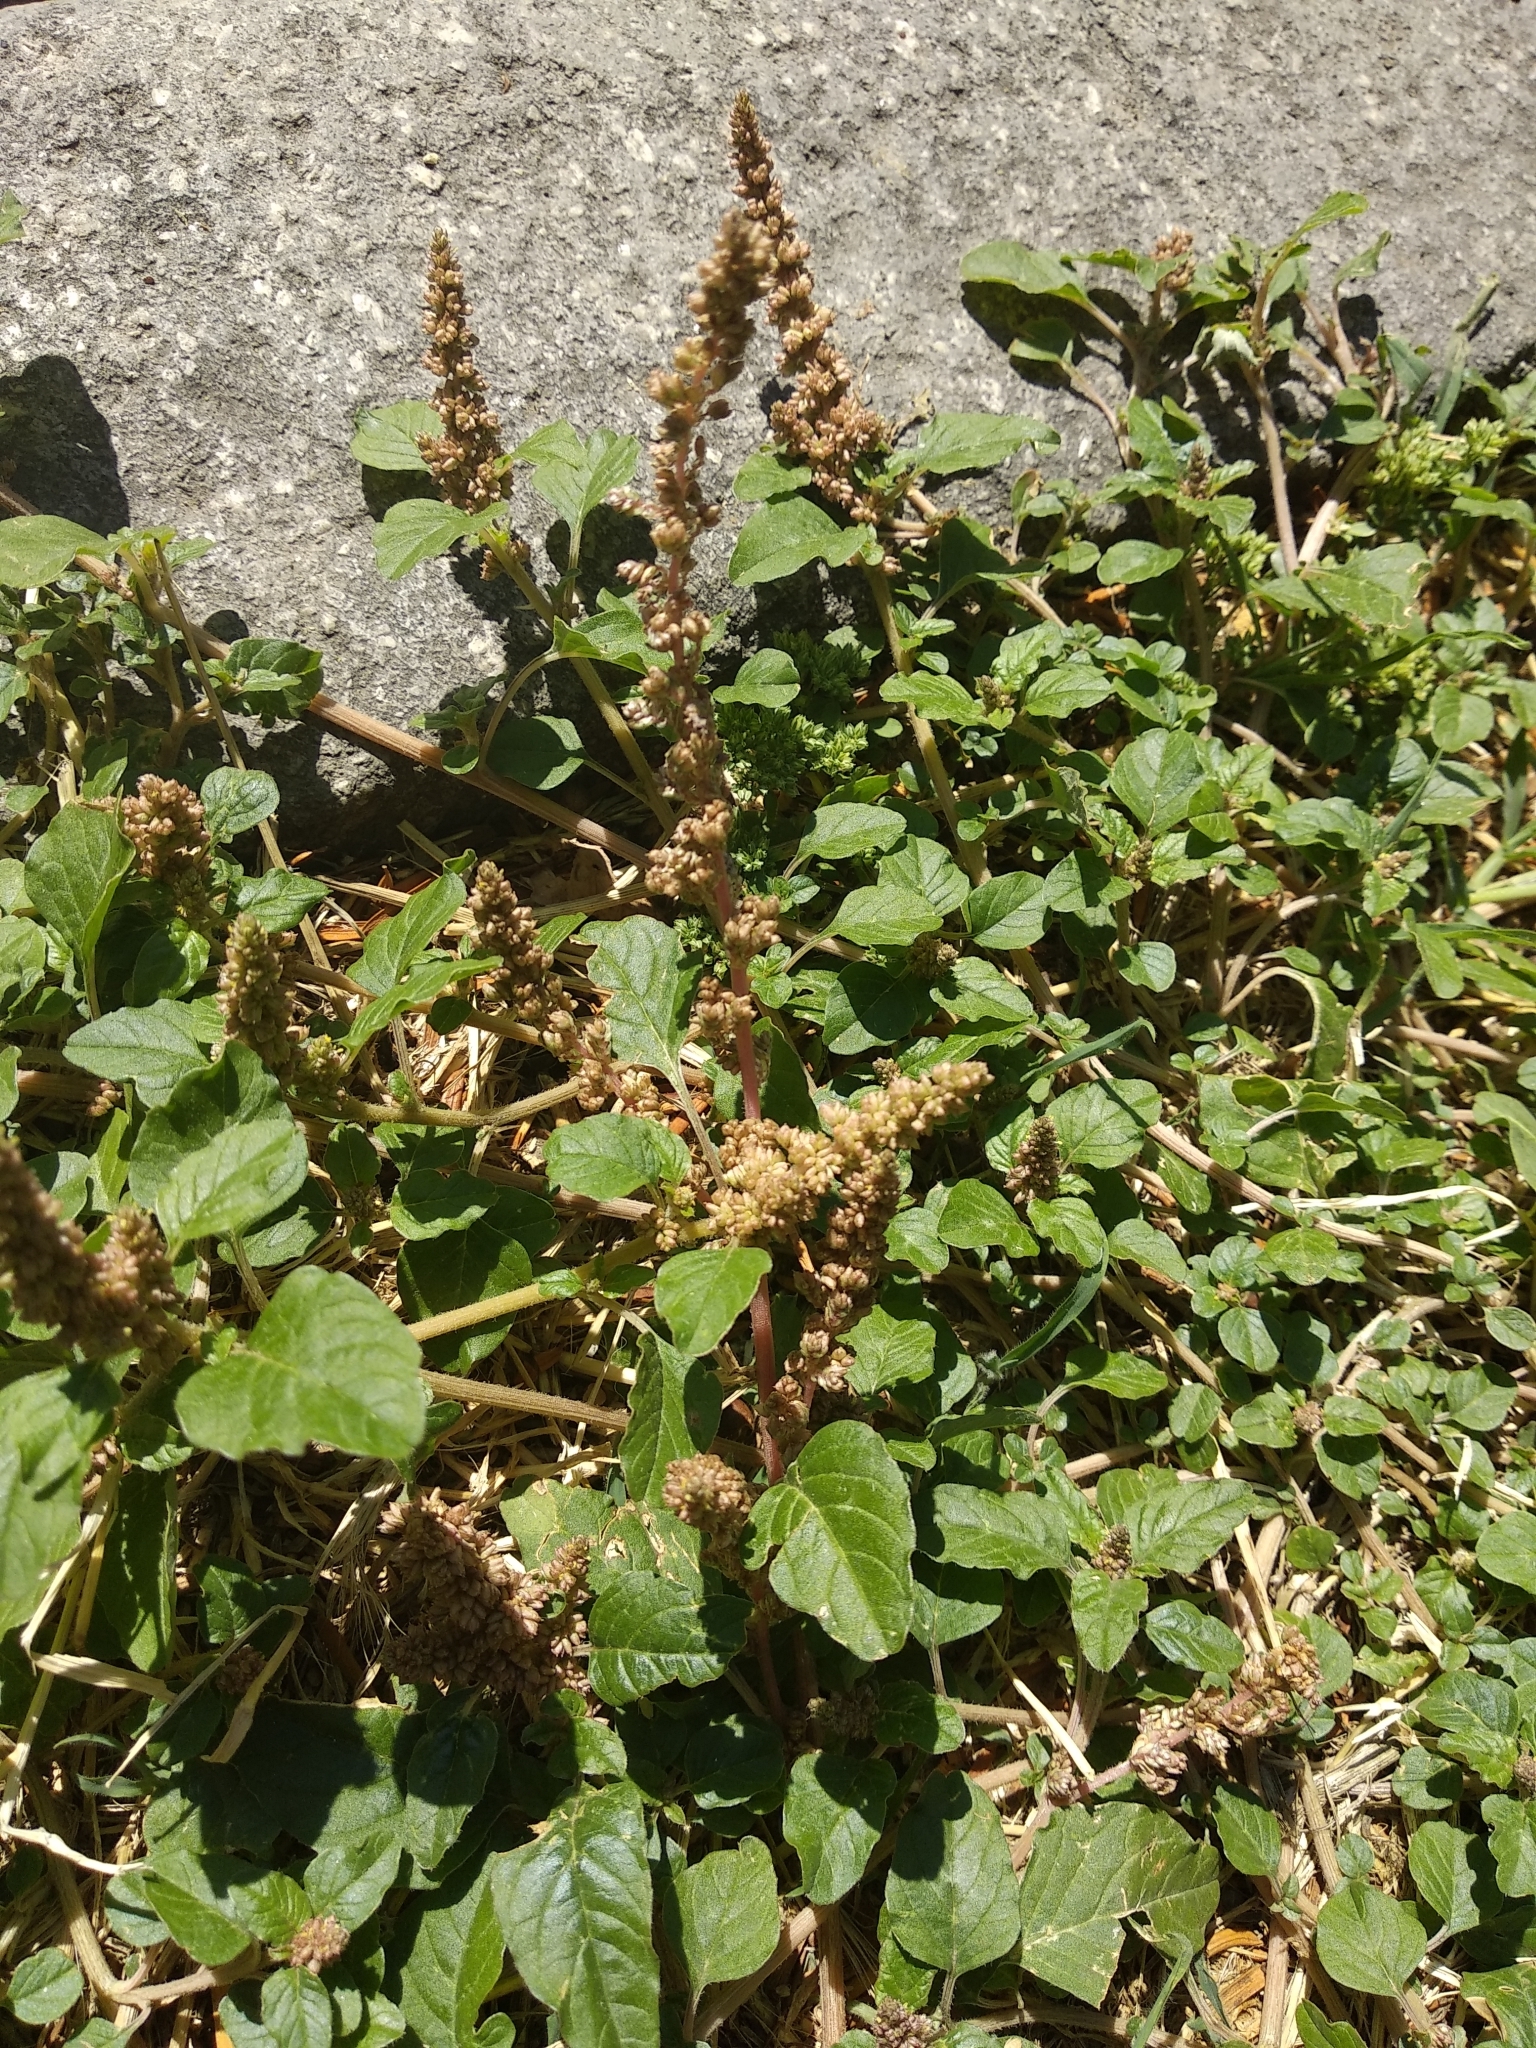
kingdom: Plantae
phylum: Tracheophyta
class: Magnoliopsida
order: Caryophyllales
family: Amaranthaceae
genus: Amaranthus
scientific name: Amaranthus deflexus
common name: Perennial pigweed
